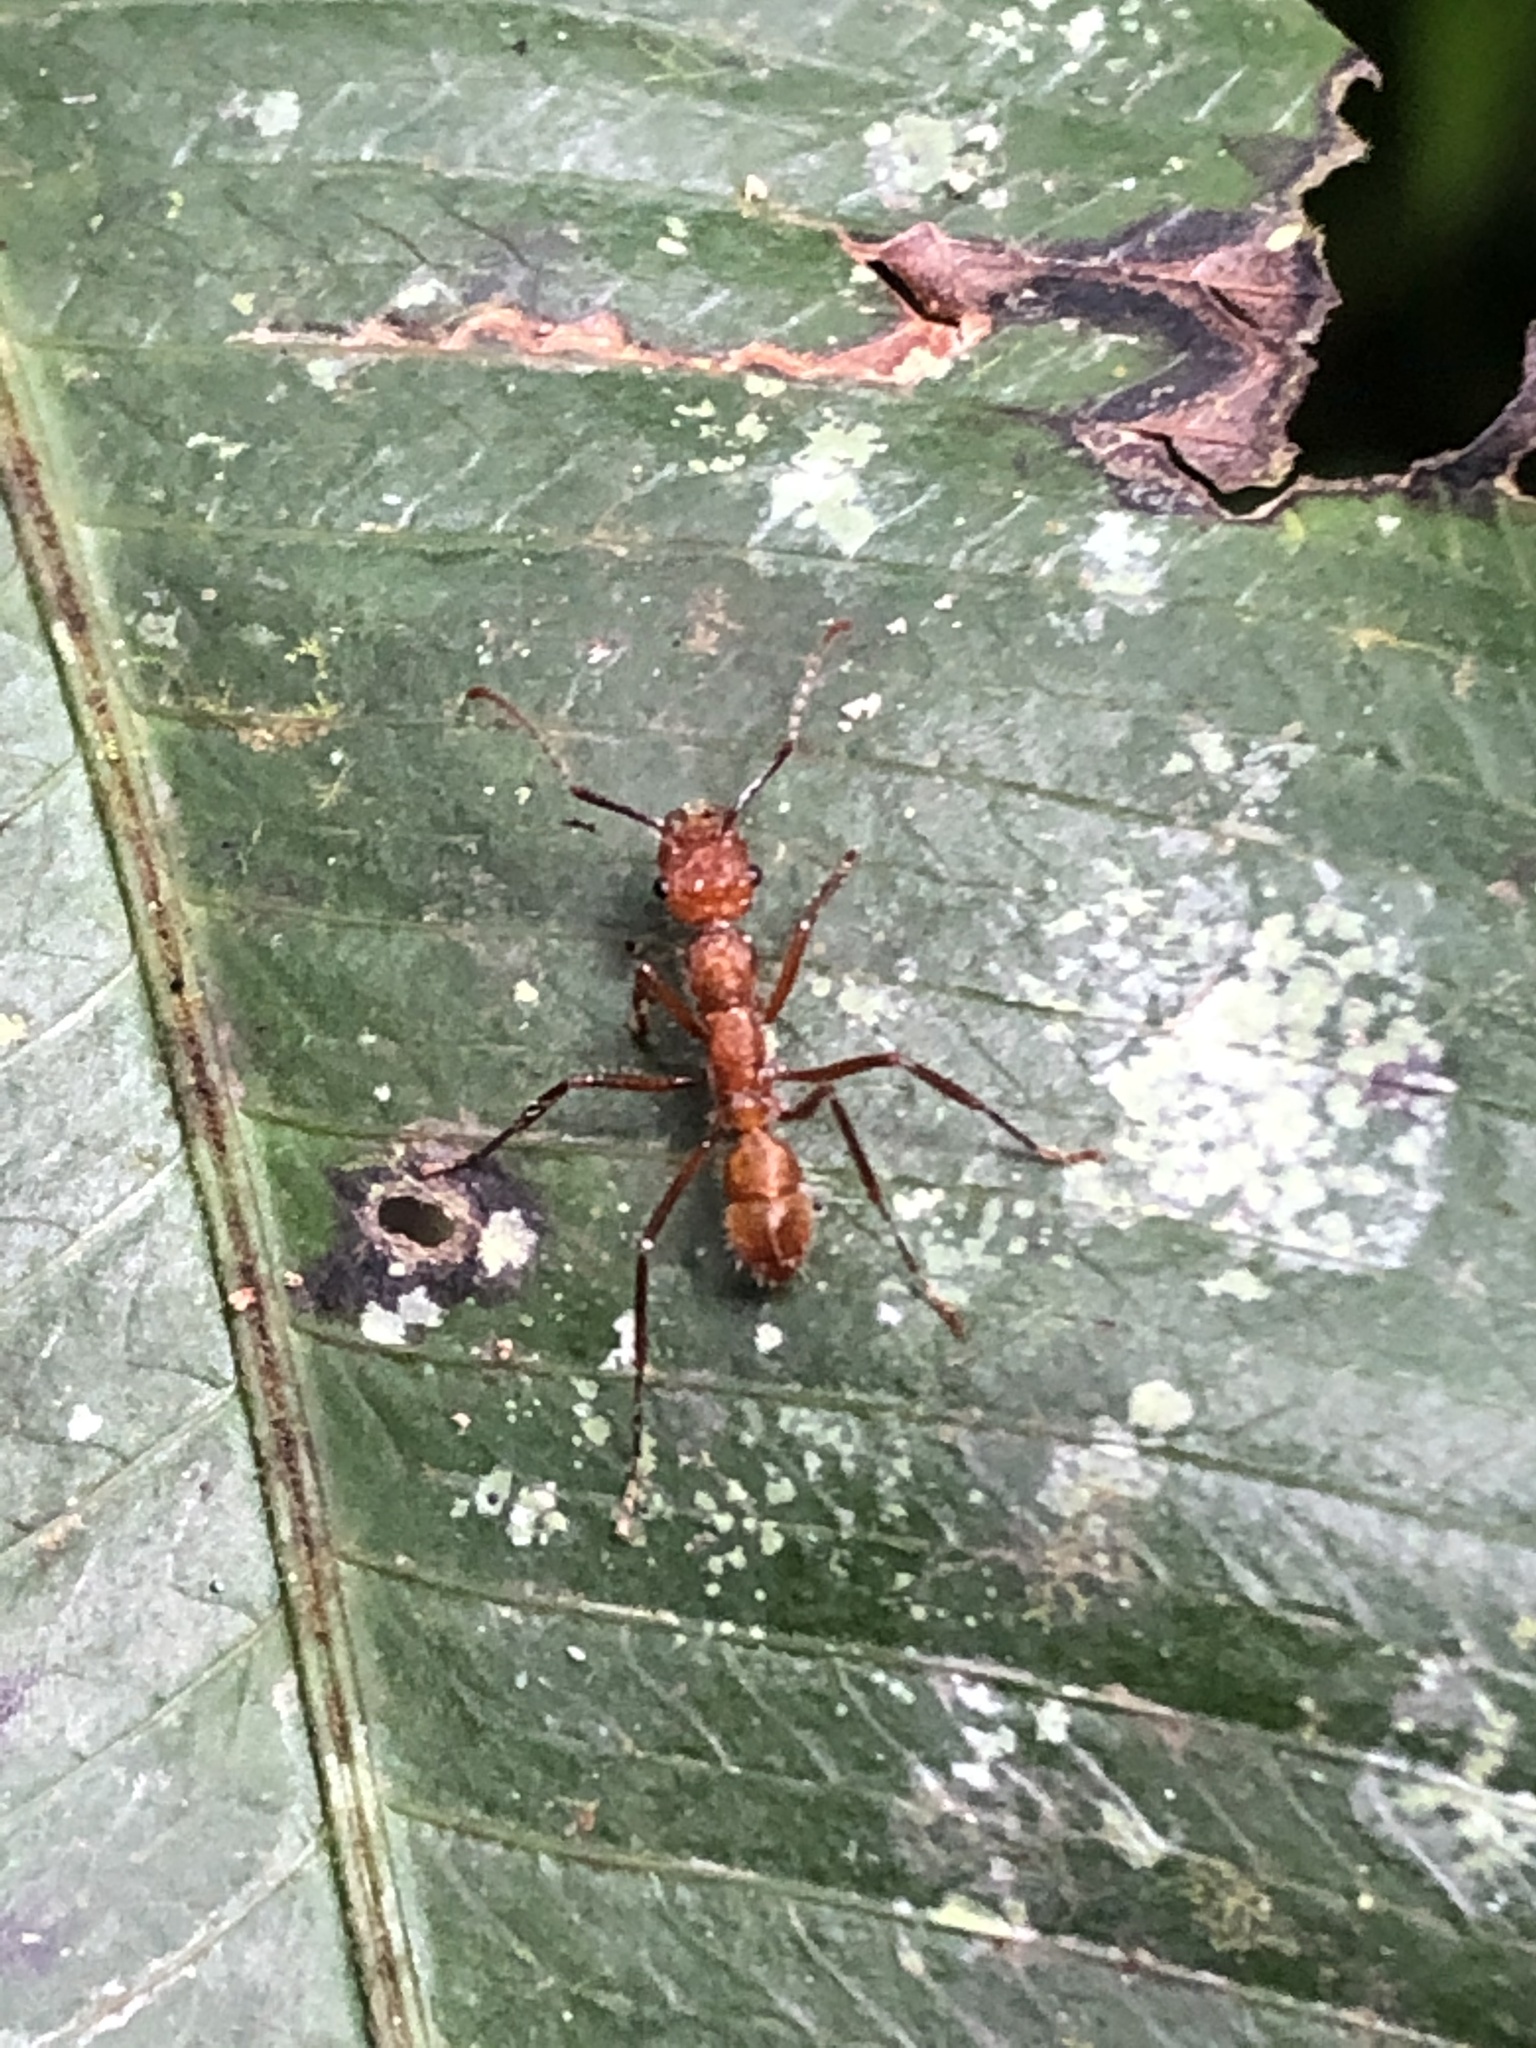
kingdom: Animalia
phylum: Arthropoda
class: Insecta
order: Hymenoptera
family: Formicidae
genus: Ectatomma
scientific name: Ectatomma tuberculatum
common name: Ant
